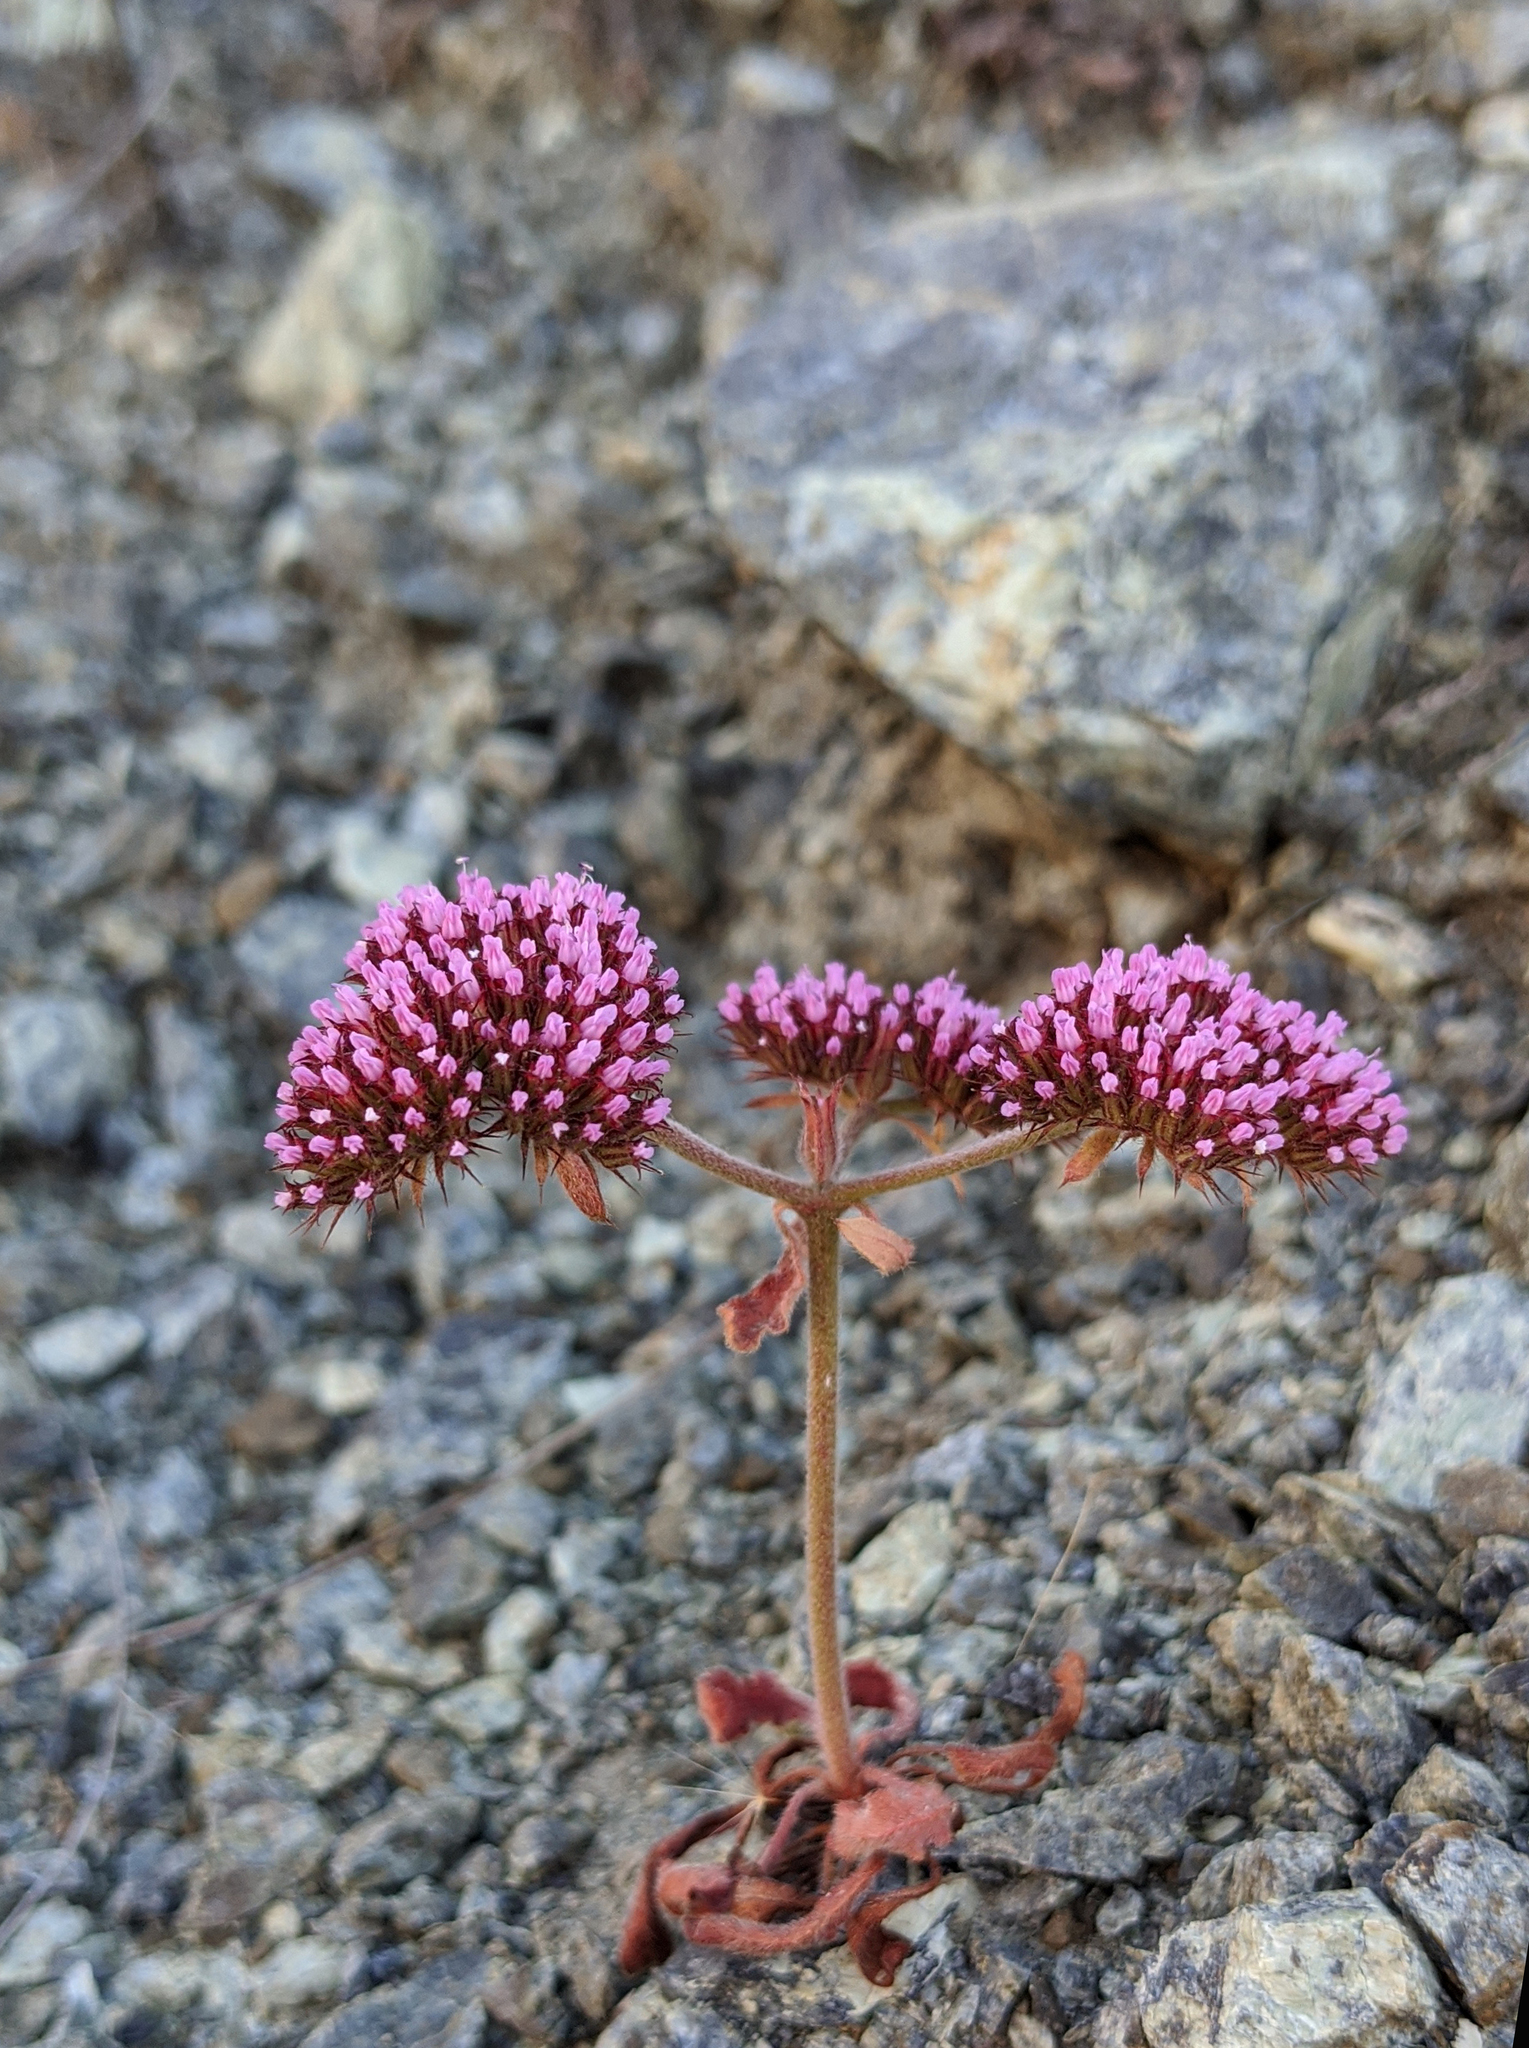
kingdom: Plantae
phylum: Tracheophyta
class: Magnoliopsida
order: Caryophyllales
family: Polygonaceae
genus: Chorizanthe
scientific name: Chorizanthe palmeri
